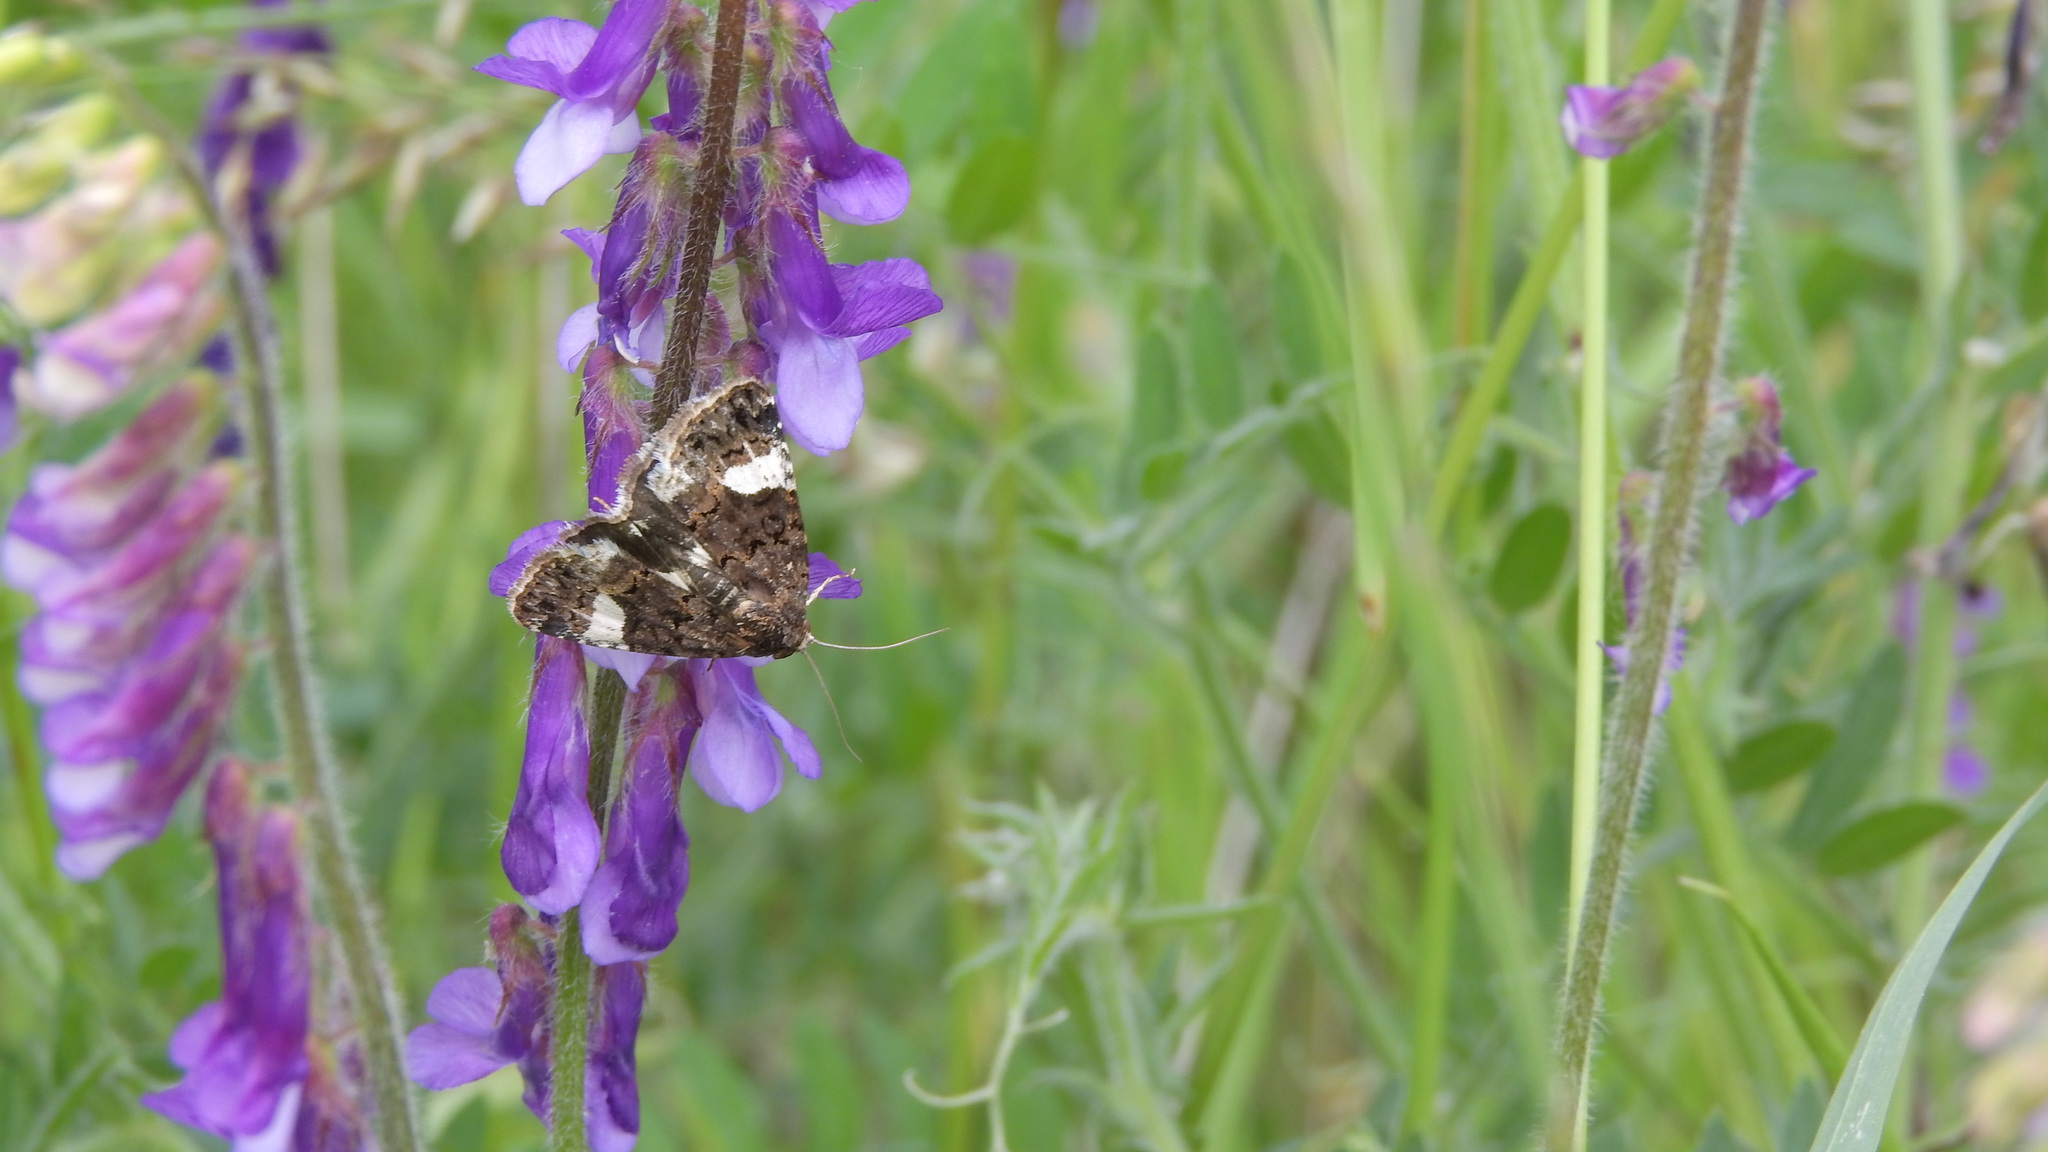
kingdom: Animalia
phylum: Arthropoda
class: Insecta
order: Lepidoptera
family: Erebidae
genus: Tyta
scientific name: Tyta luctuosa
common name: Four-spotted
